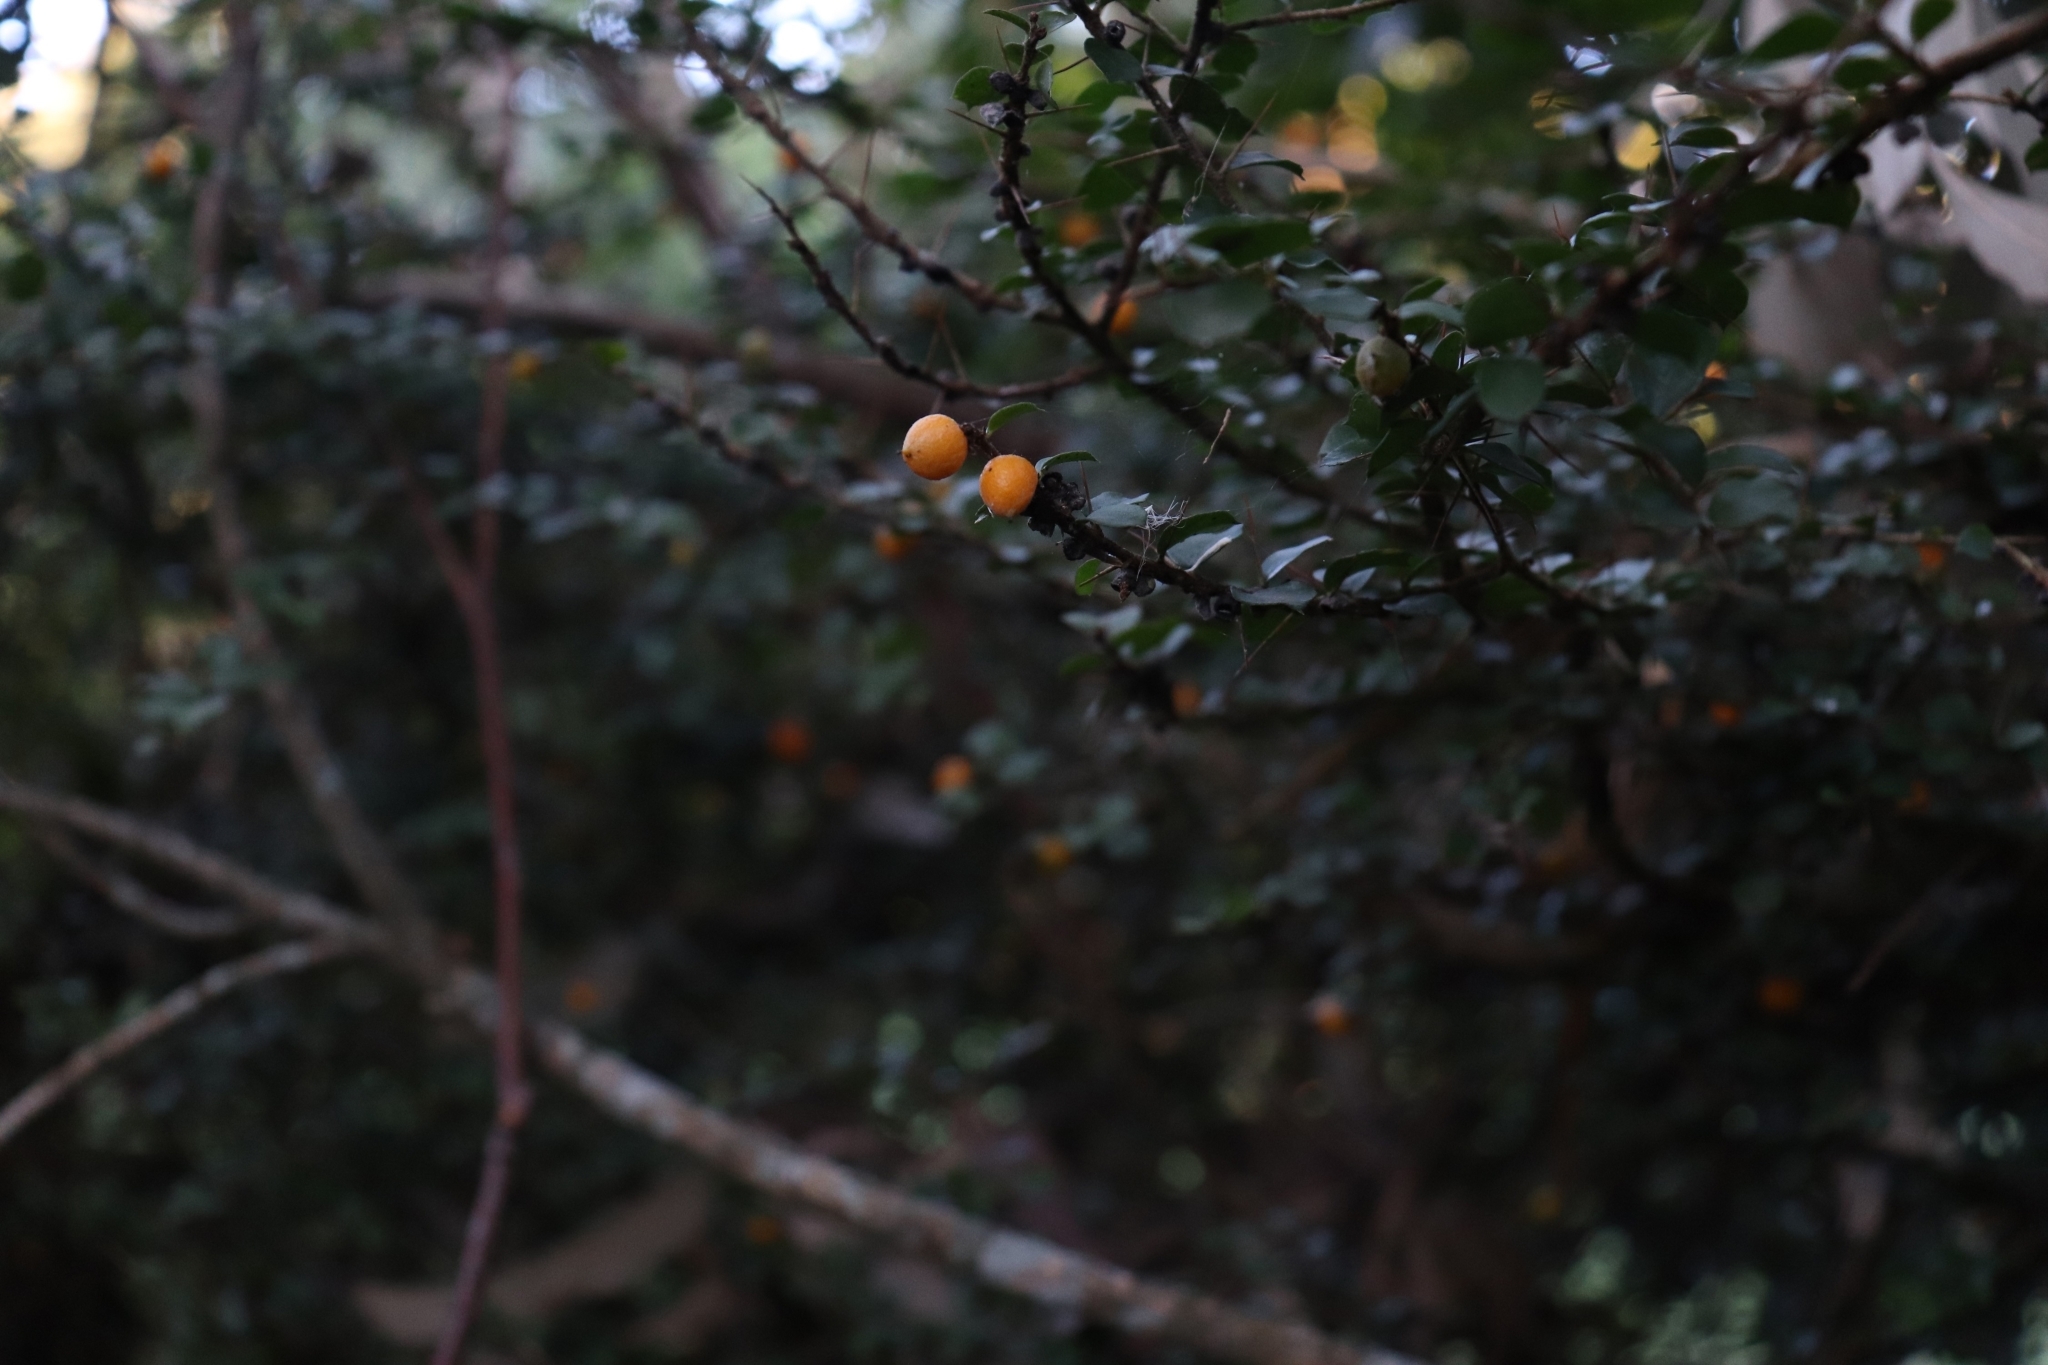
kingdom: Plantae
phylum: Tracheophyta
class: Magnoliopsida
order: Apiales
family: Pittosporaceae
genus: Pittosporum
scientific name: Pittosporum multiflorum
